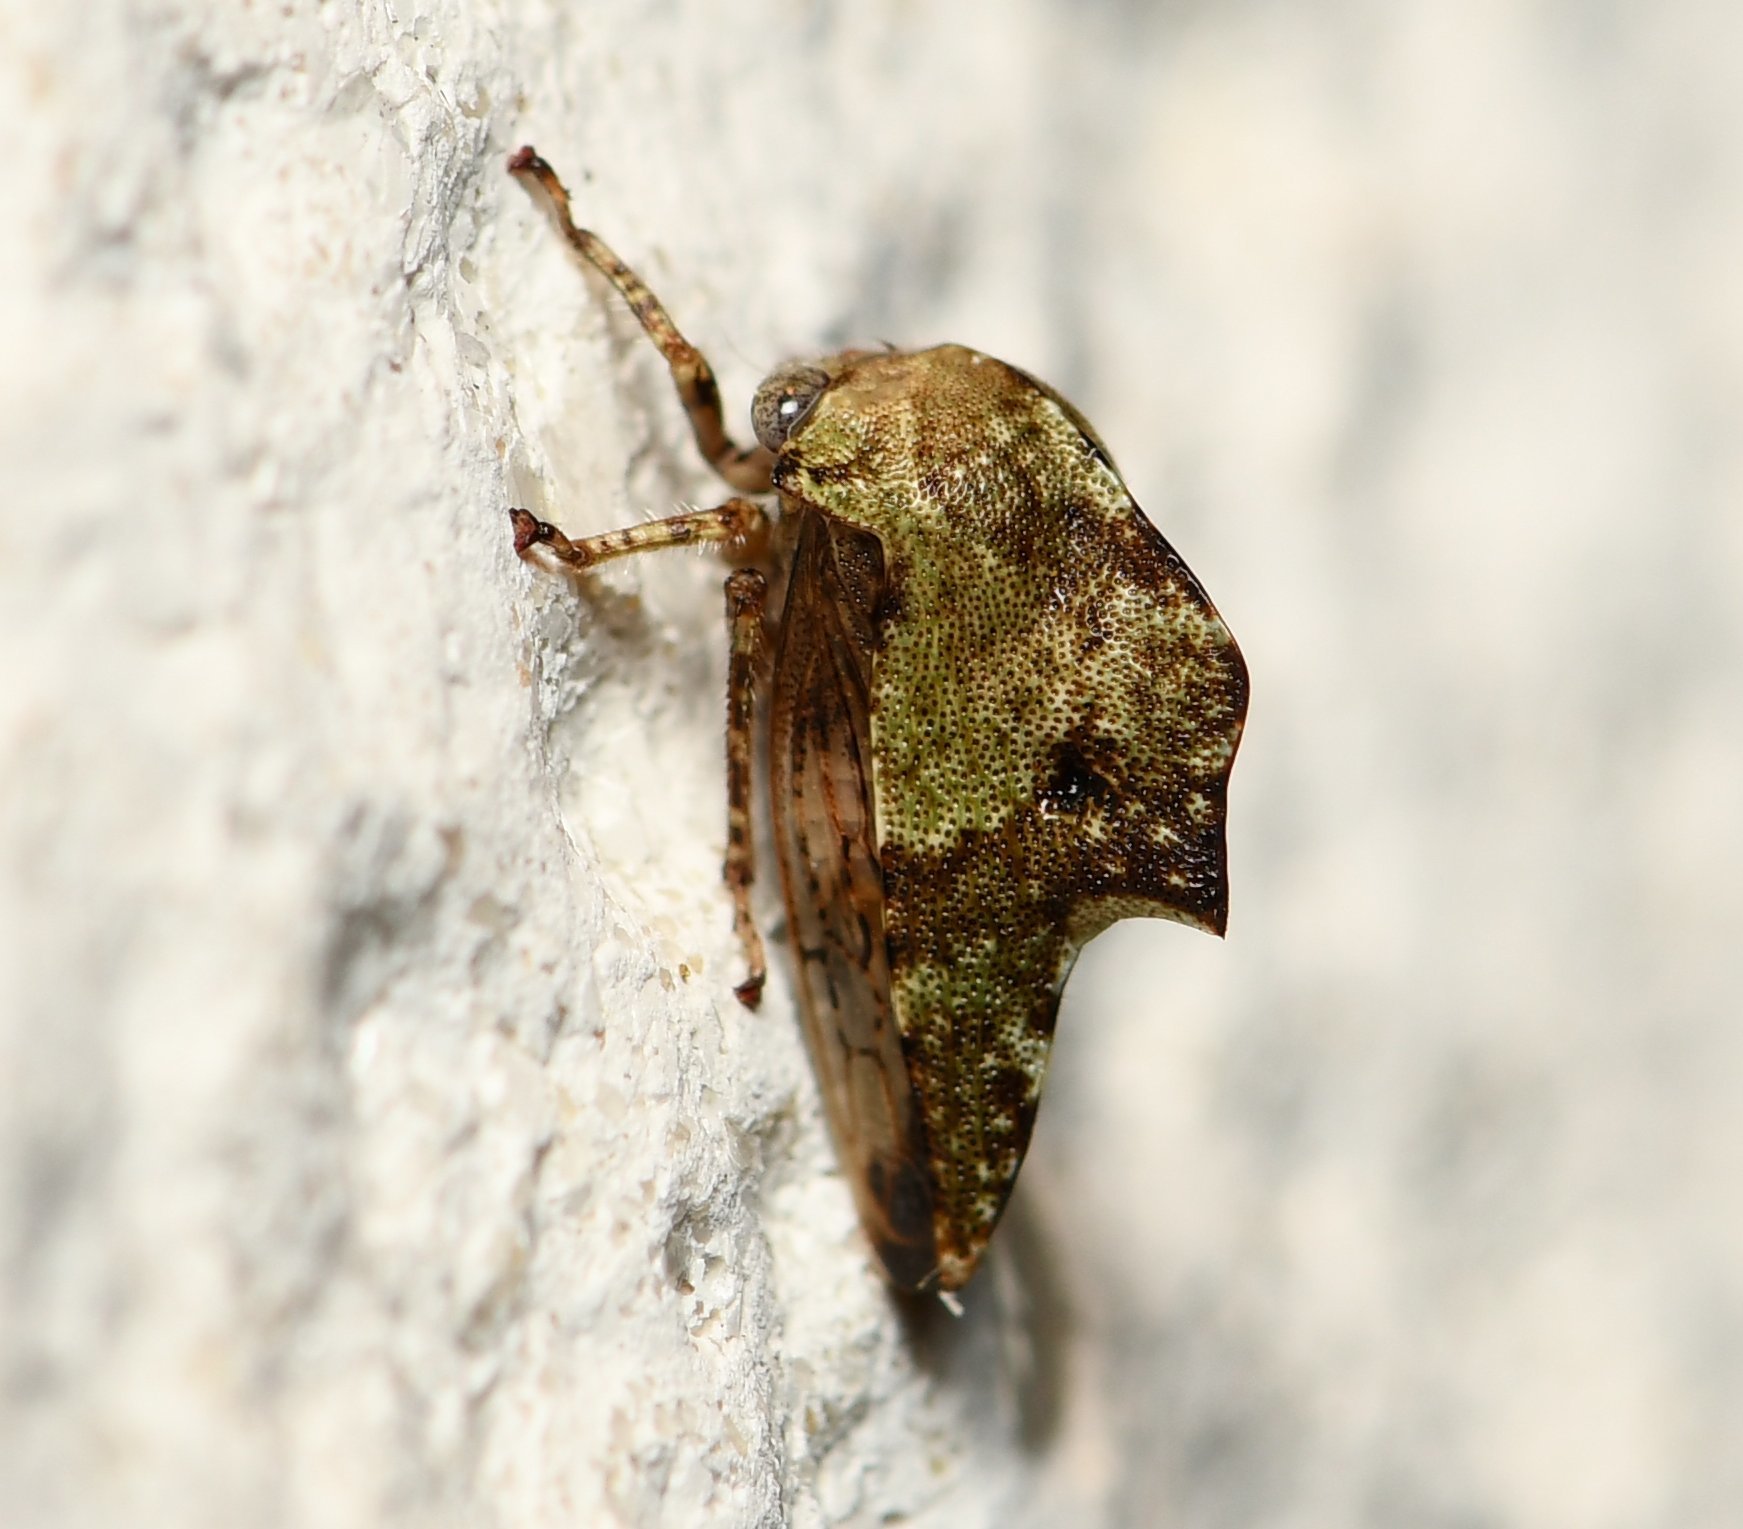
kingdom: Animalia
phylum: Arthropoda
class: Insecta
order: Hemiptera
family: Membracidae
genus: Telamona
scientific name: Telamona
